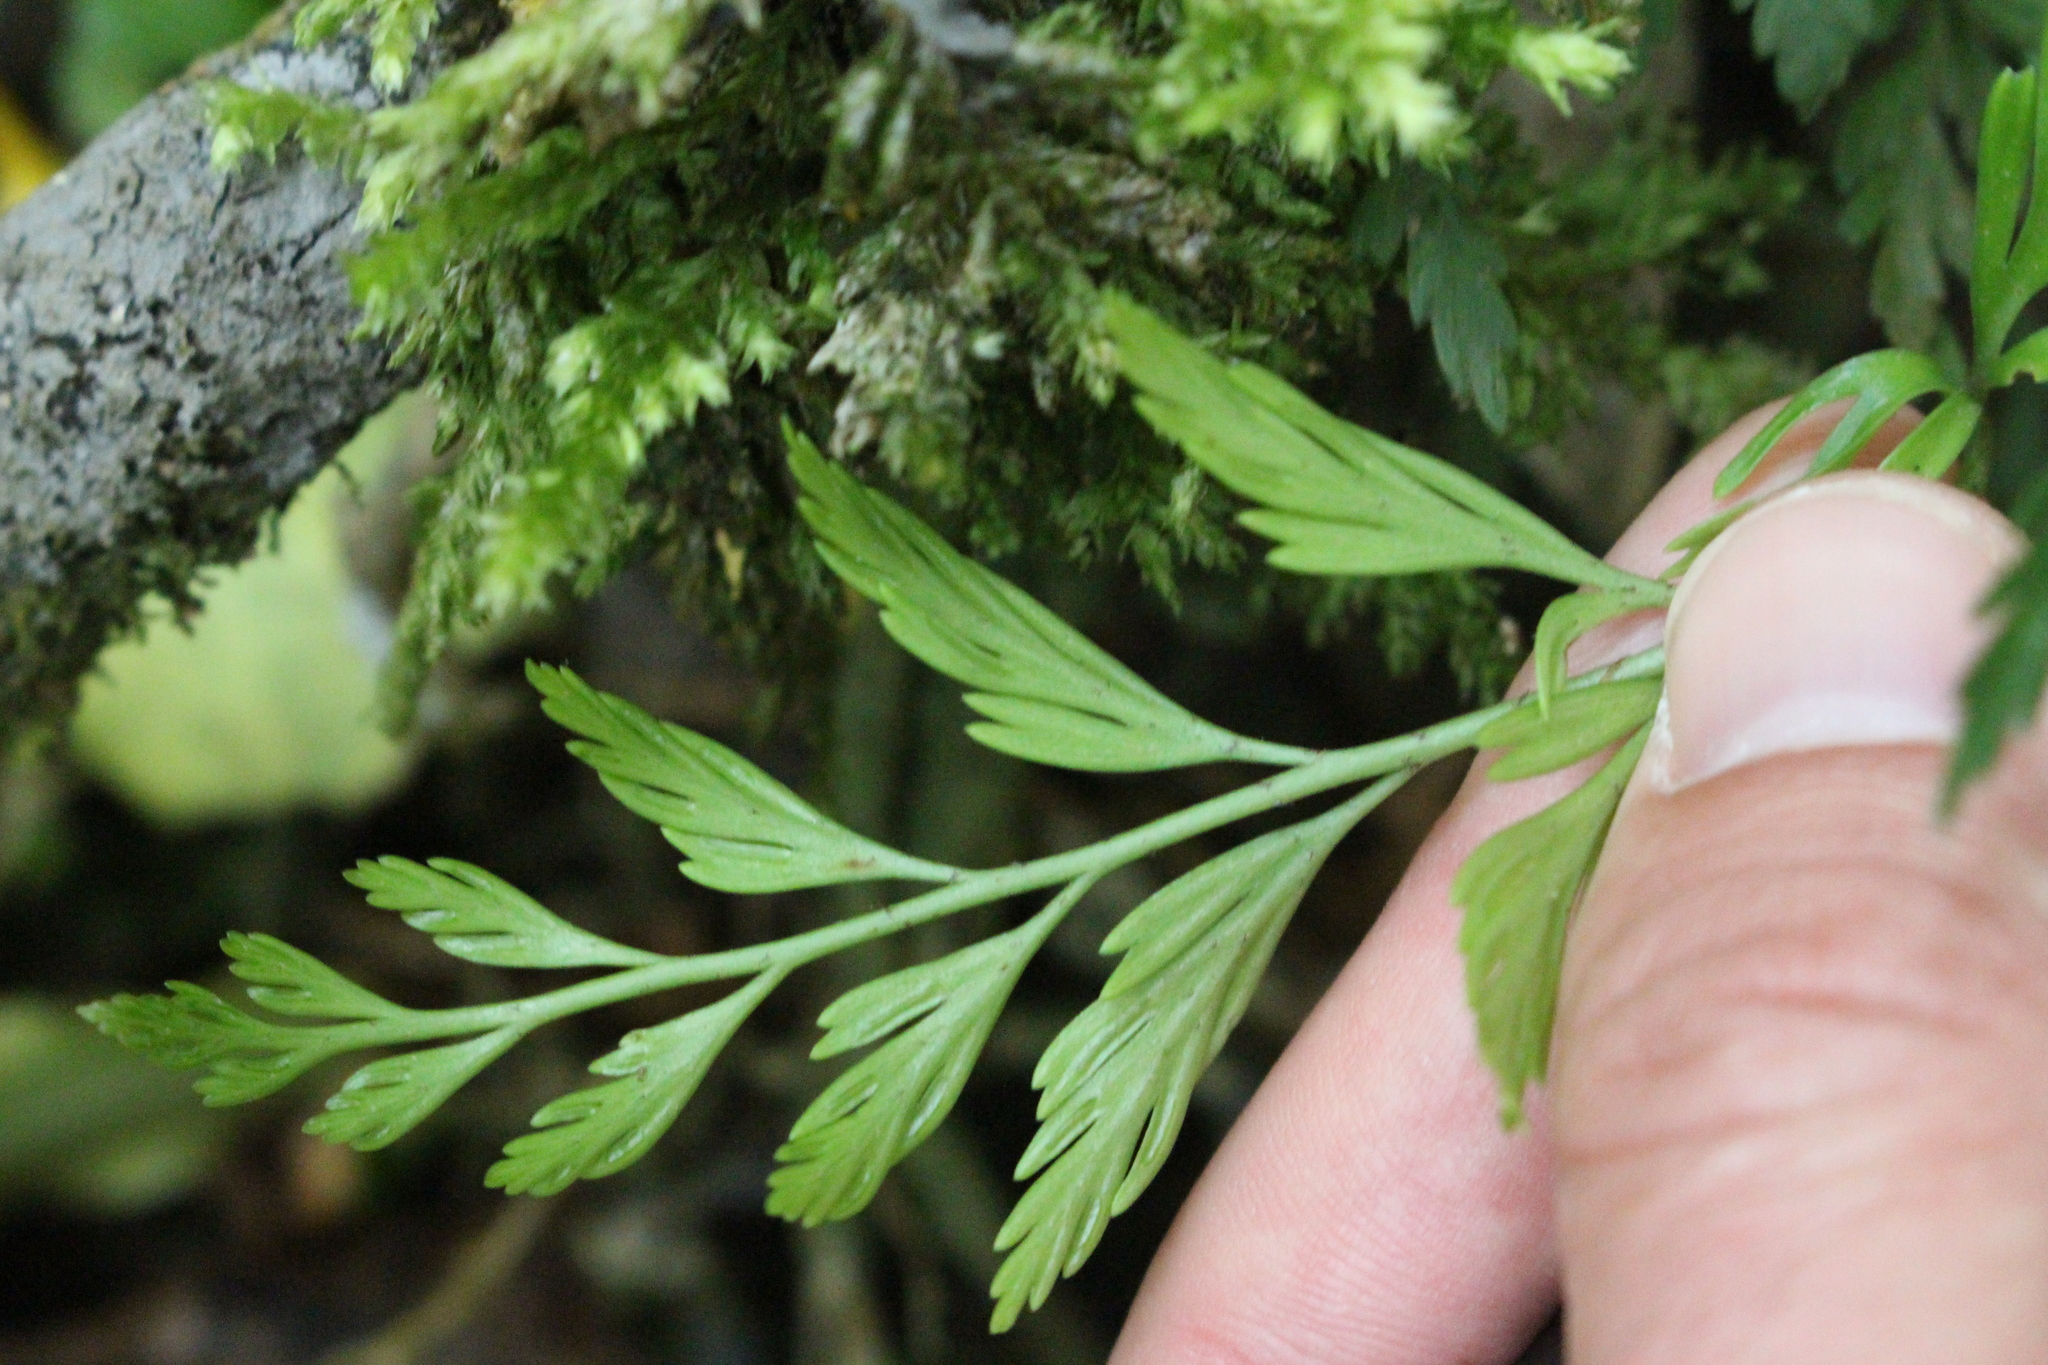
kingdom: Plantae
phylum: Tracheophyta
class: Polypodiopsida
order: Polypodiales
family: Aspleniaceae
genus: Asplenium
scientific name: Asplenium appendiculatum
